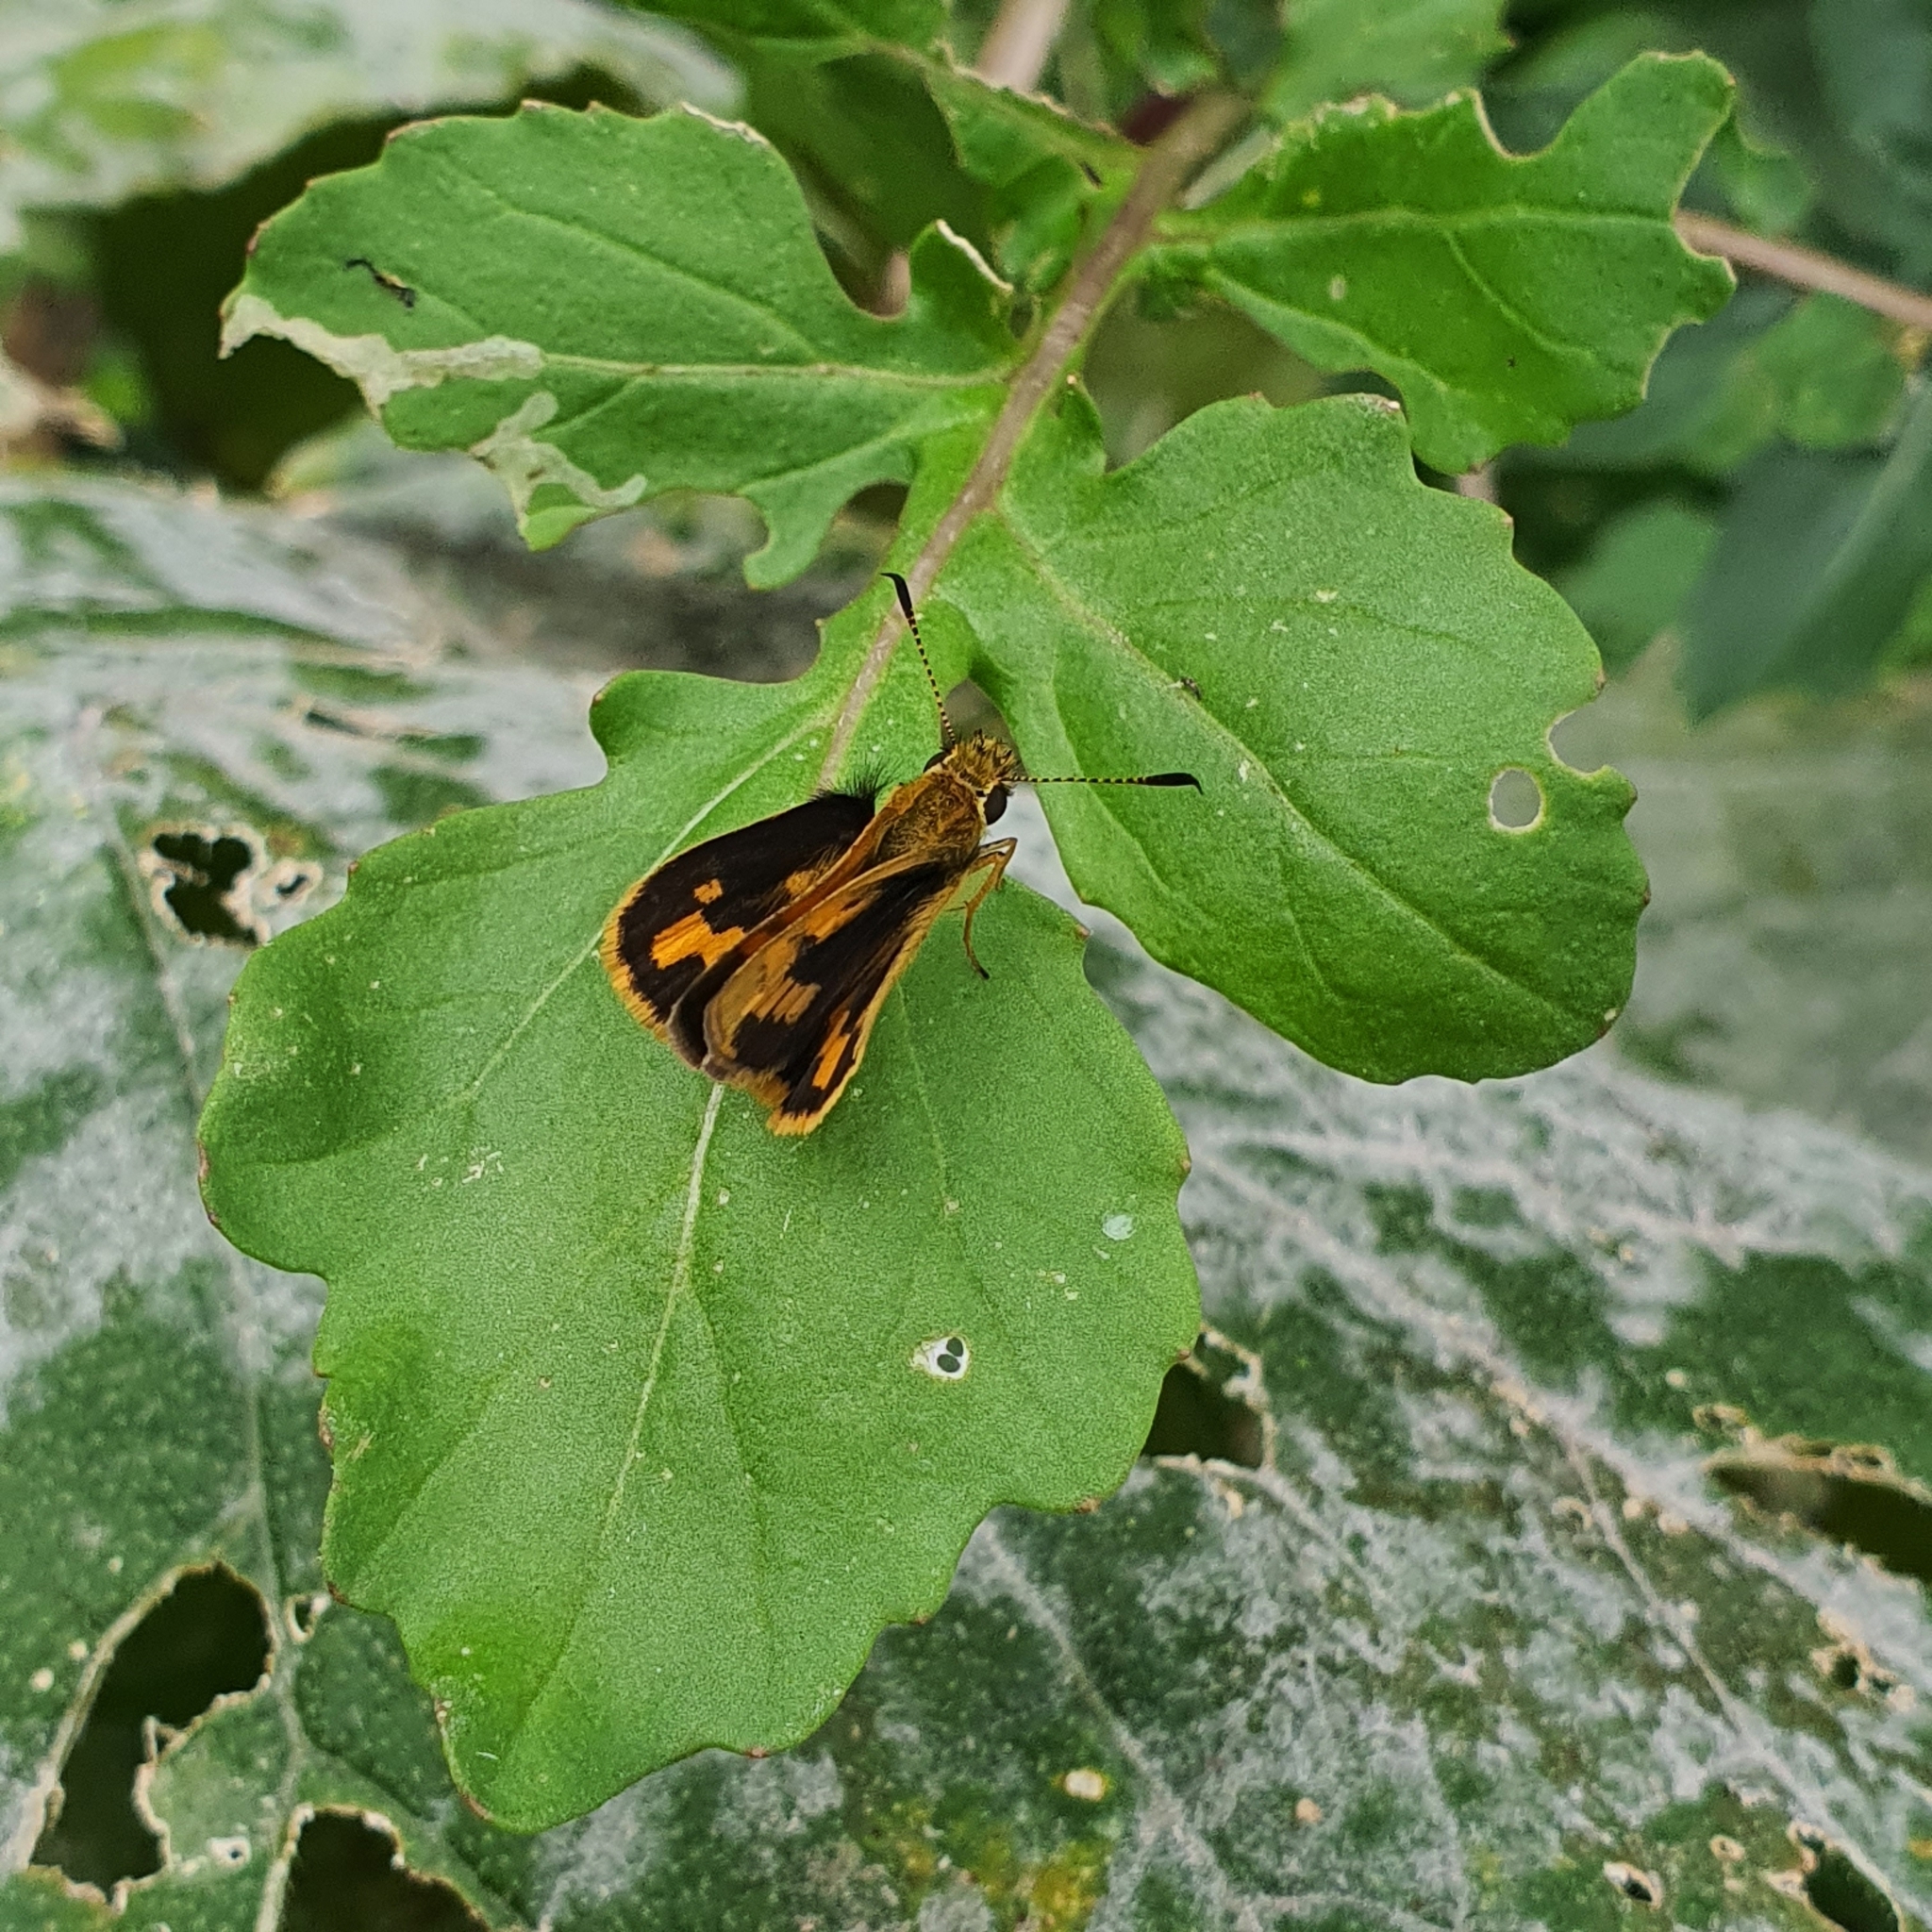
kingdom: Animalia
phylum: Arthropoda
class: Insecta
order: Lepidoptera
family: Hesperiidae
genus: Ocybadistes
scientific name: Ocybadistes walkeri
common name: Yellow-banded dart
